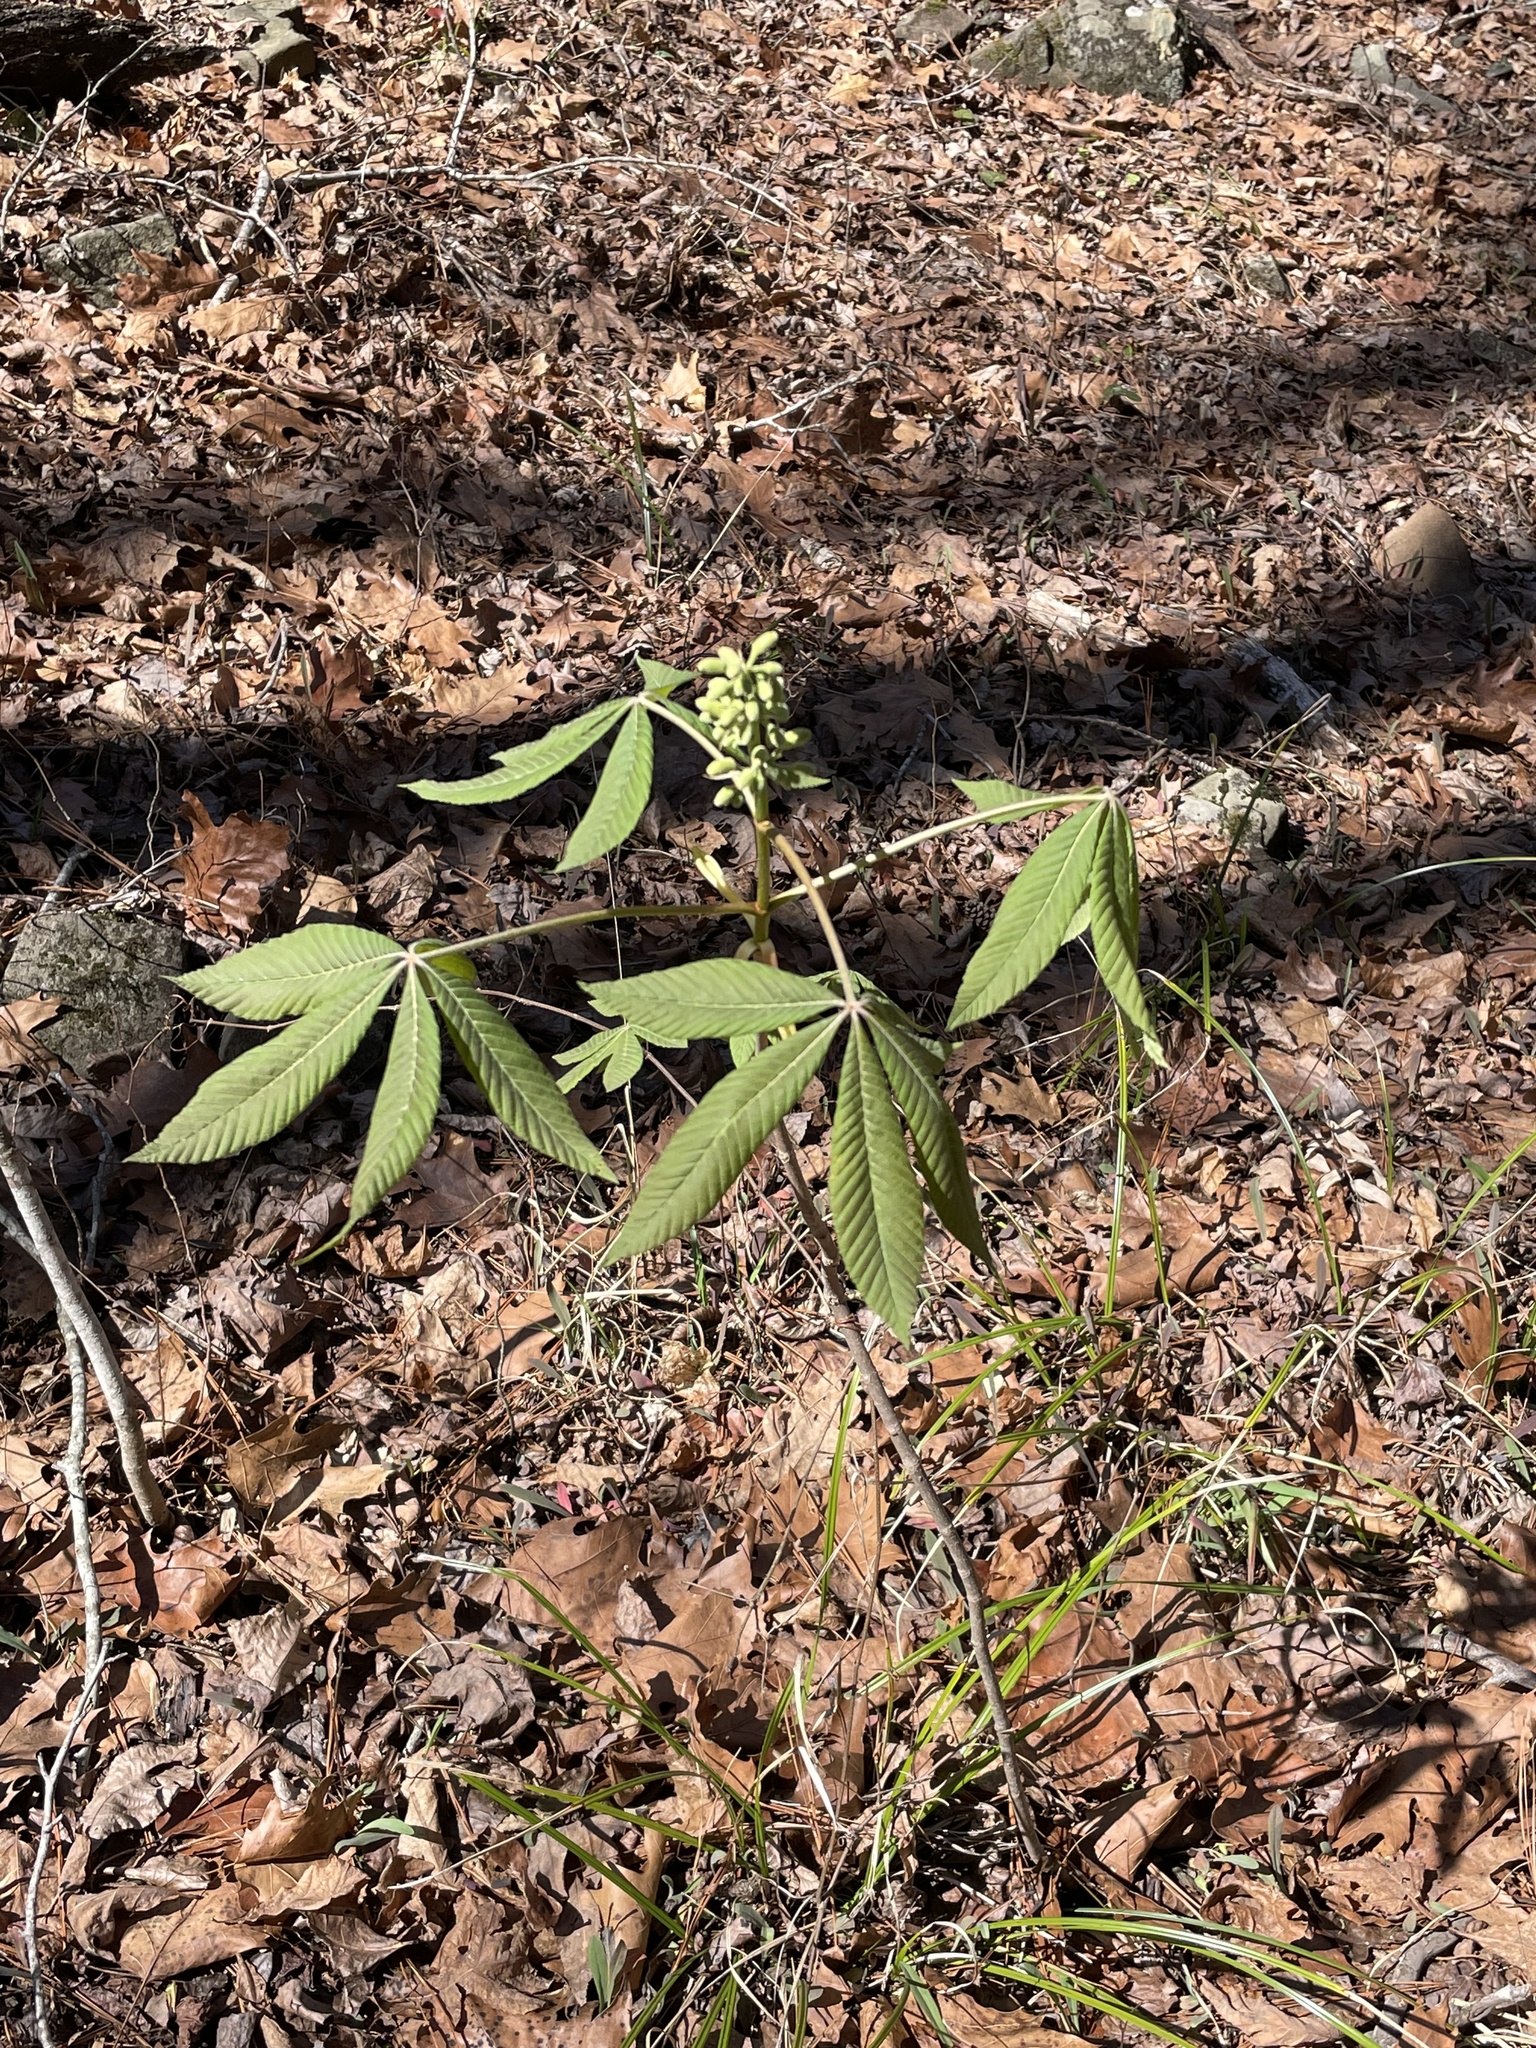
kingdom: Plantae
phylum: Tracheophyta
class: Magnoliopsida
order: Sapindales
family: Sapindaceae
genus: Aesculus
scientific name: Aesculus sylvatica
